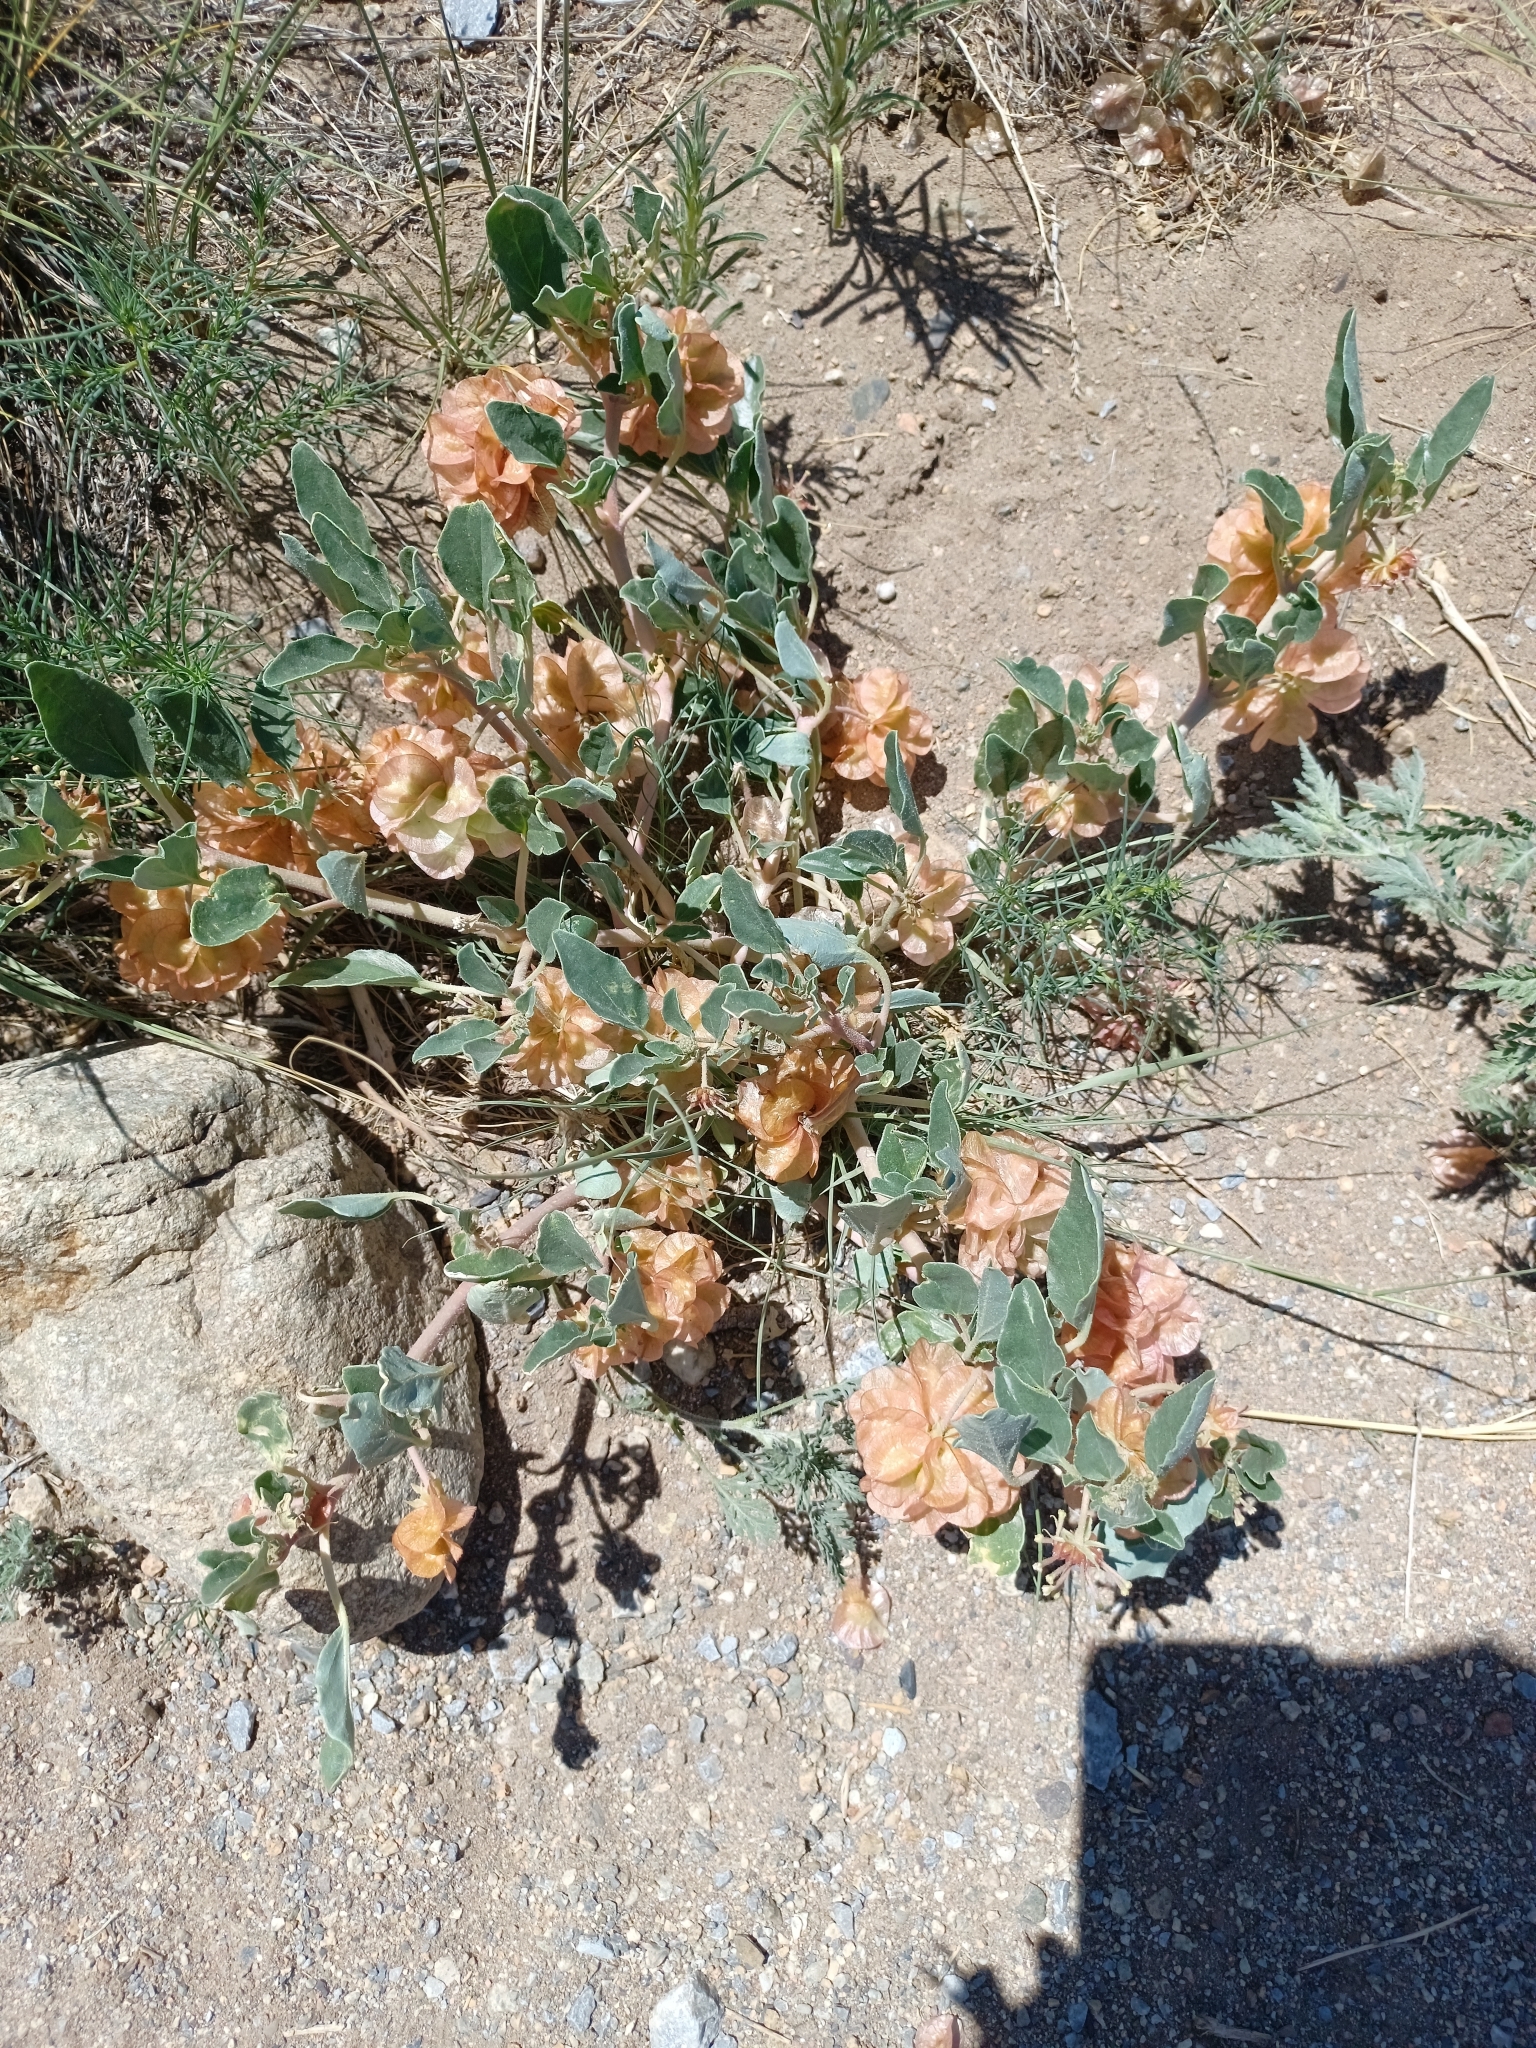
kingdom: Plantae
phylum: Tracheophyta
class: Magnoliopsida
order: Caryophyllales
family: Nyctaginaceae
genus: Tripterocalyx
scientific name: Tripterocalyx micranthus
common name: Small-flowered sand-verbena
